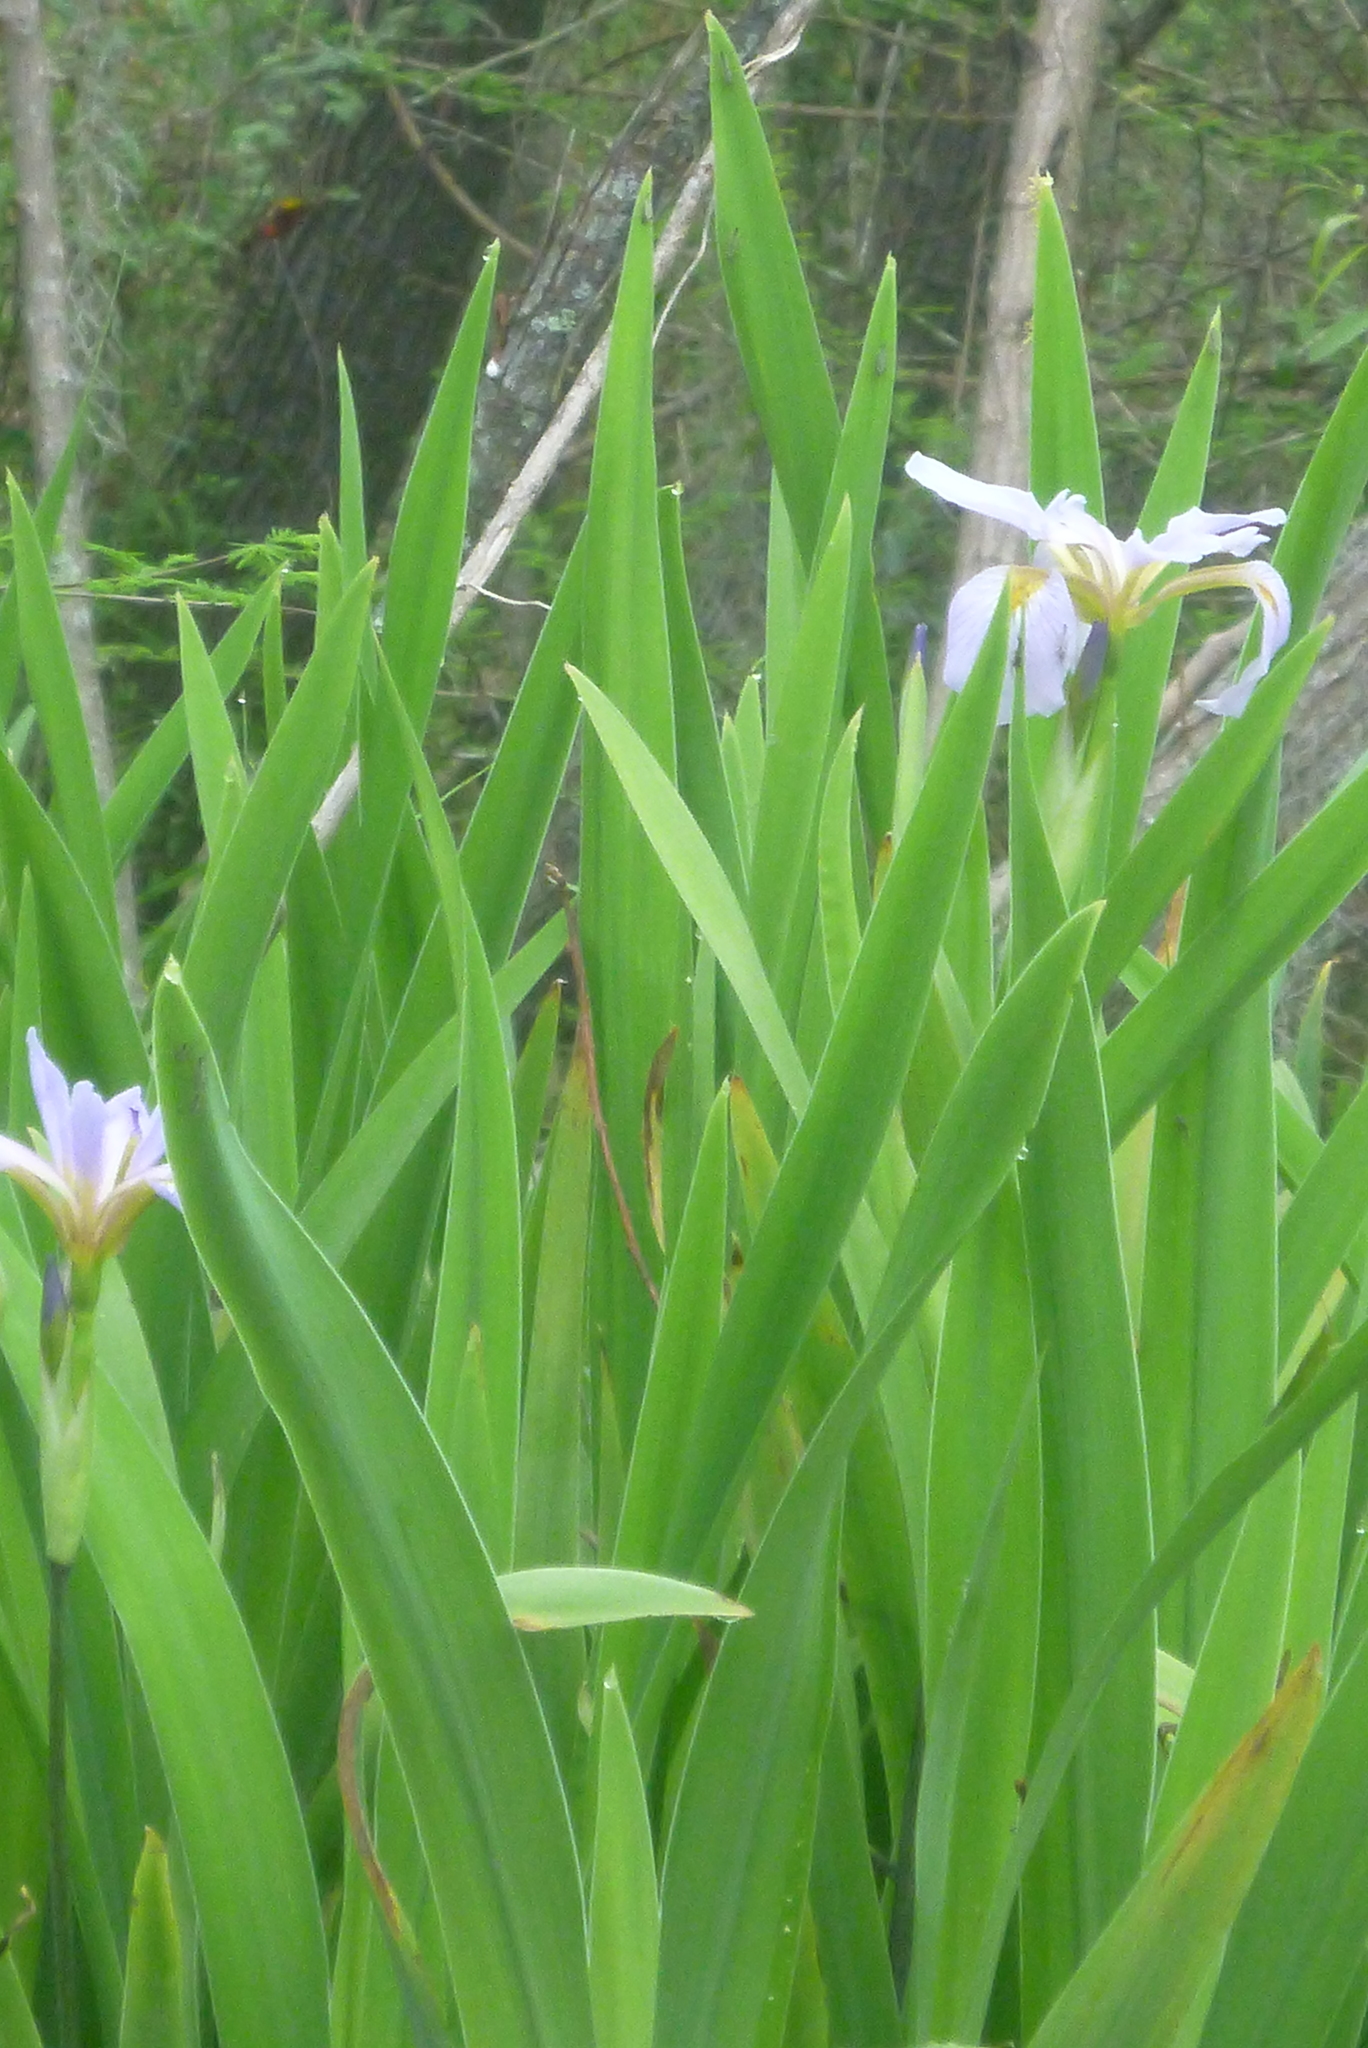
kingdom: Plantae
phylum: Tracheophyta
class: Liliopsida
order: Asparagales
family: Iridaceae
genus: Iris
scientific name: Iris virginica
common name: Southern blue flag
